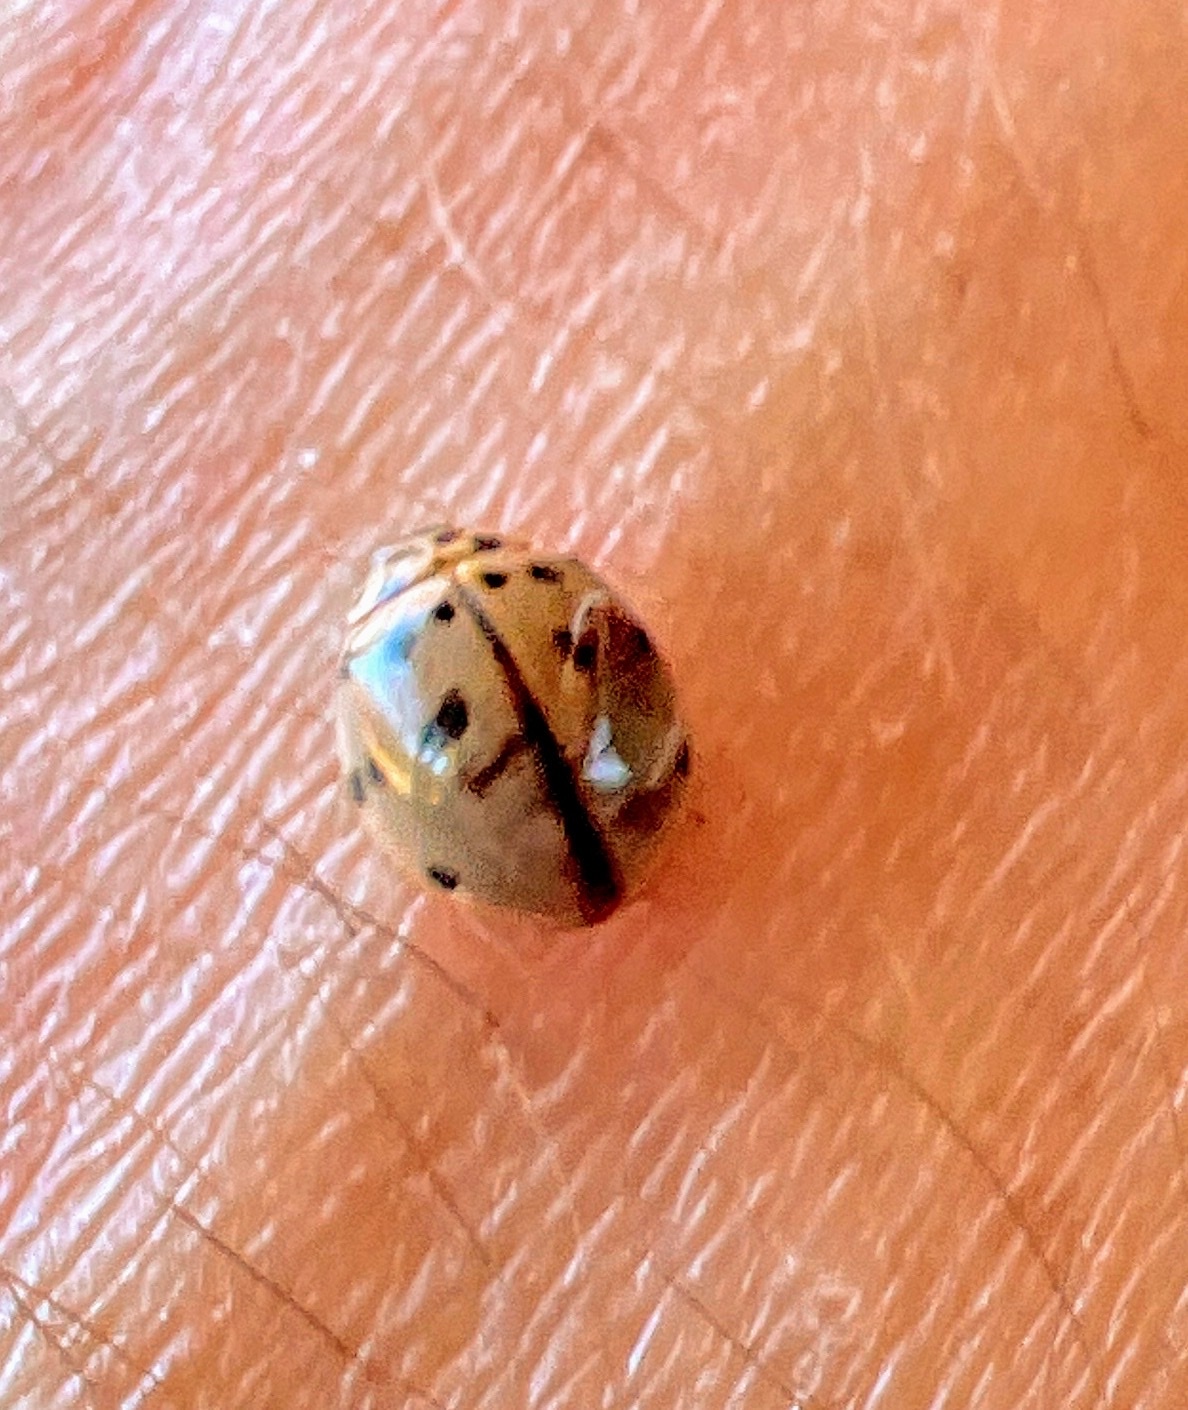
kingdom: Animalia
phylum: Arthropoda
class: Insecta
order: Coleoptera
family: Coccinellidae
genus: Olla
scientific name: Olla v-nigrum
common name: Ashy gray lady beetle
